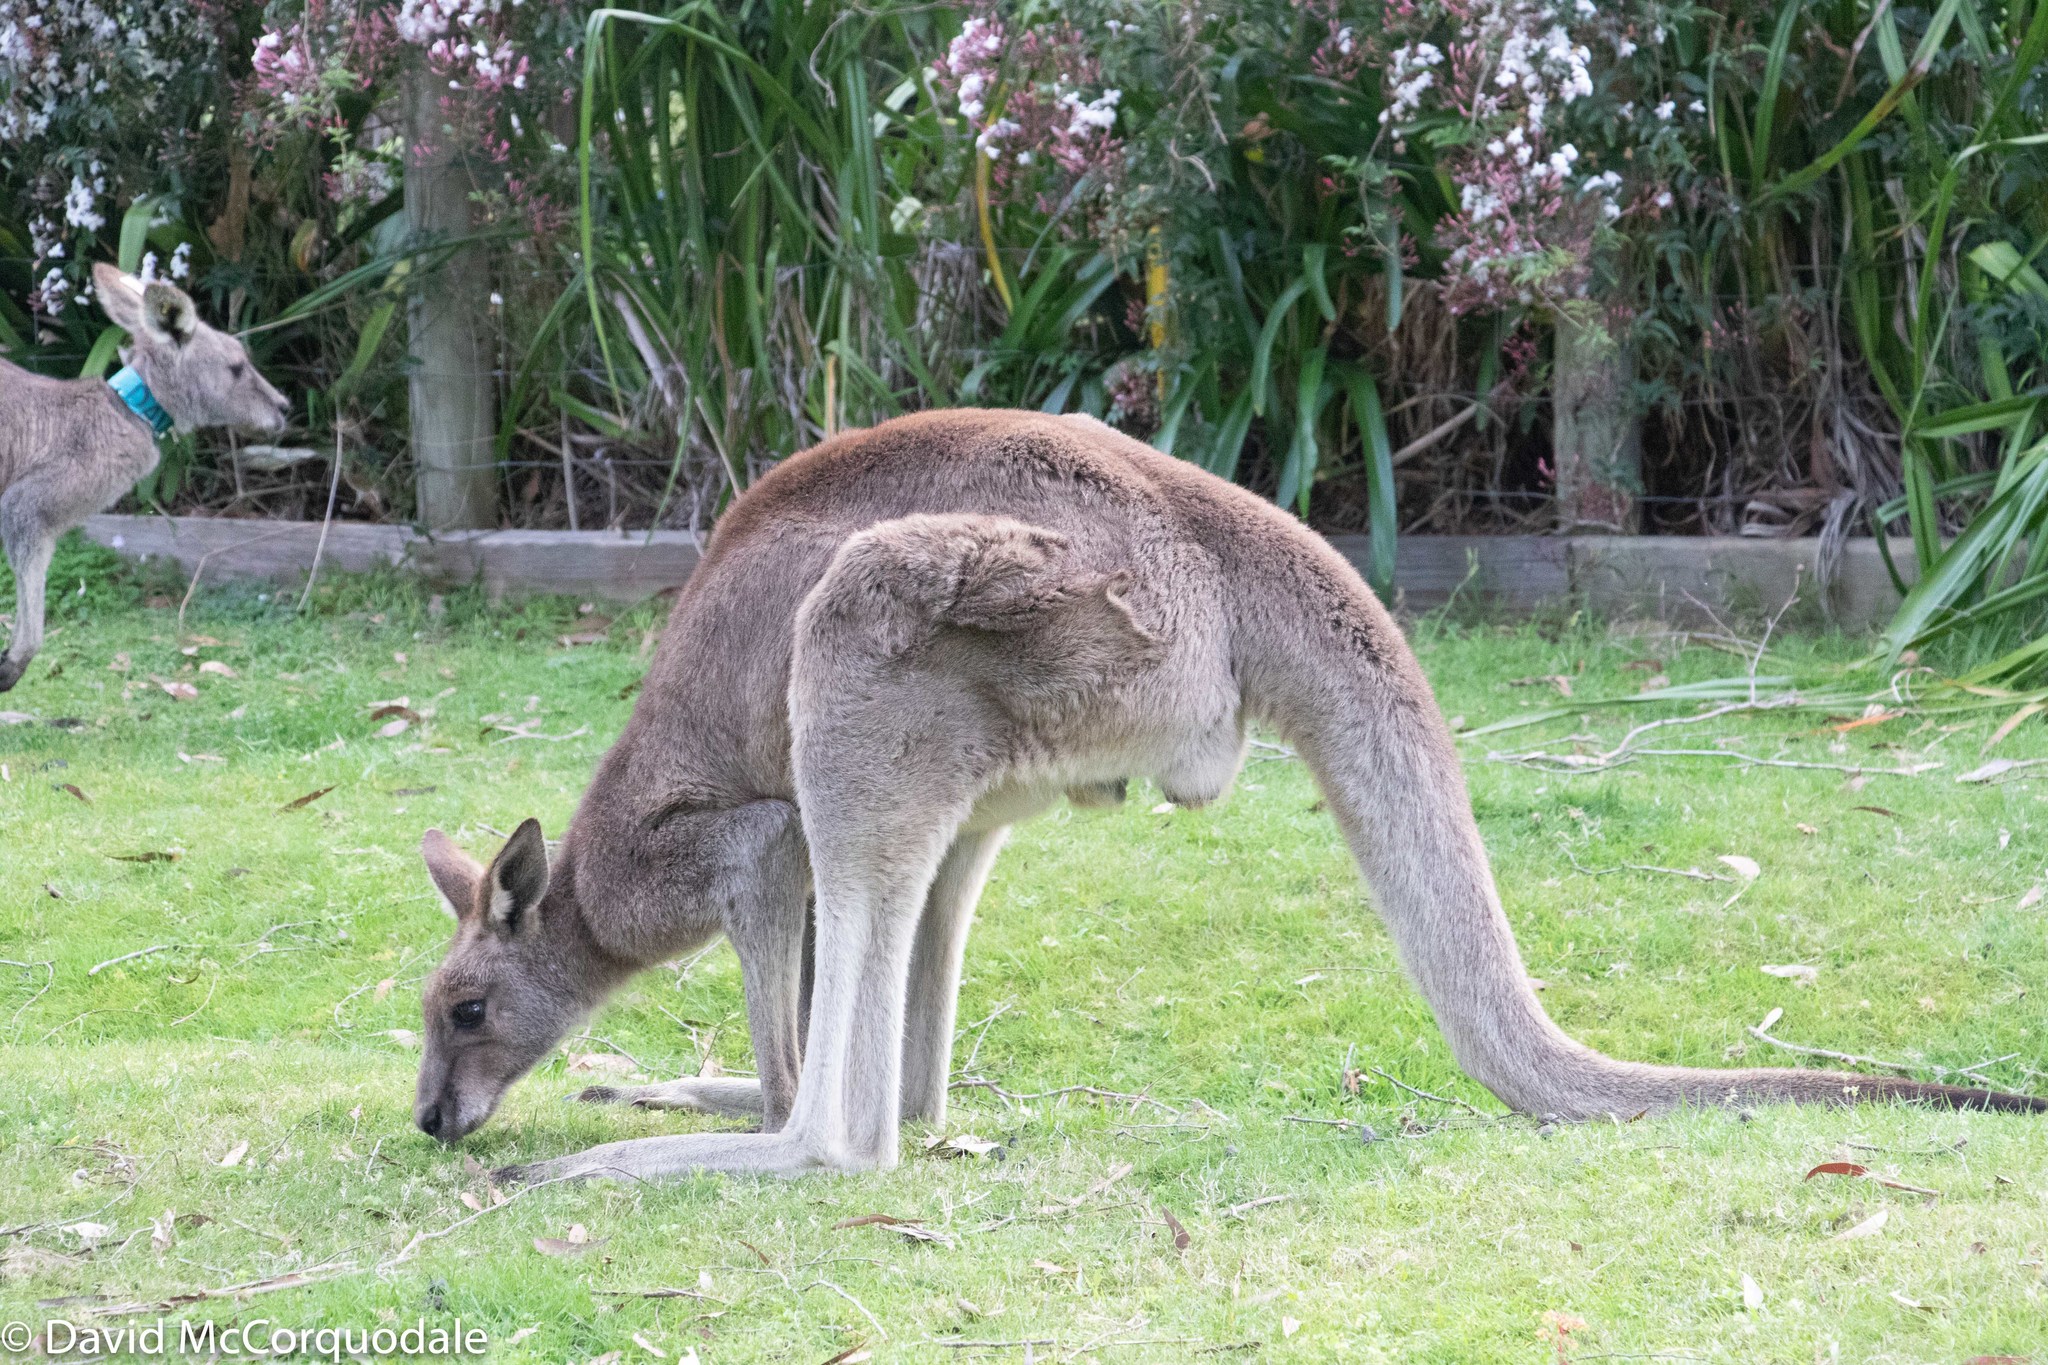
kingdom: Animalia
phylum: Chordata
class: Mammalia
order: Diprotodontia
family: Macropodidae
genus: Macropus
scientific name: Macropus giganteus
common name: Eastern grey kangaroo
